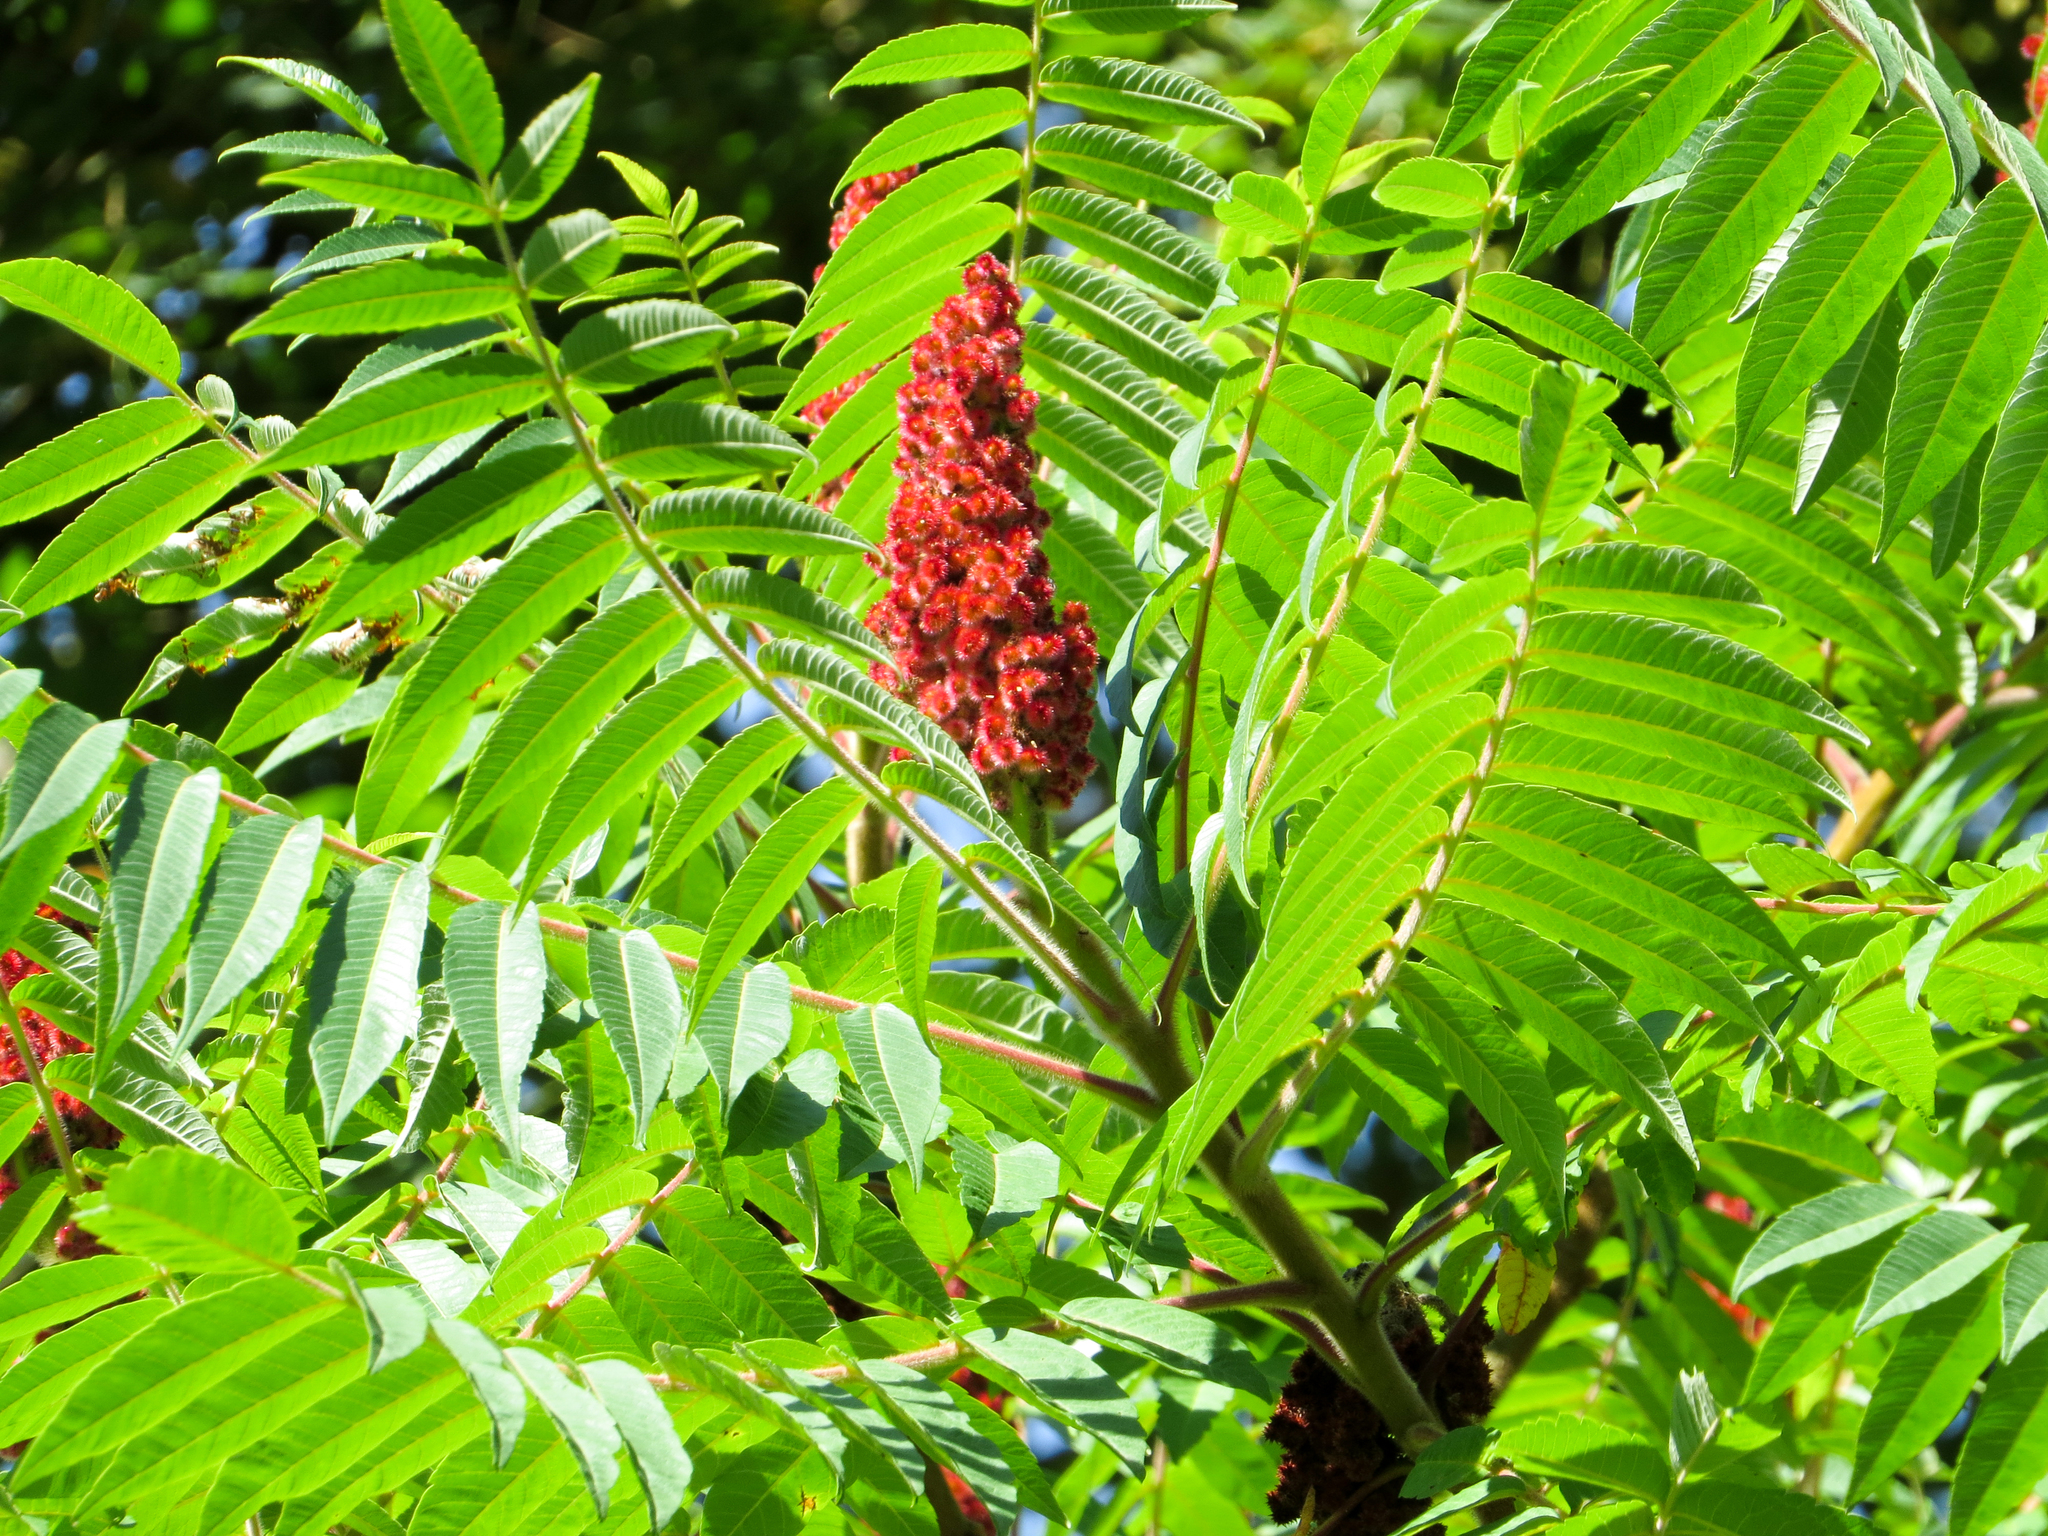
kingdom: Plantae
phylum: Tracheophyta
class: Magnoliopsida
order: Sapindales
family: Anacardiaceae
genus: Rhus
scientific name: Rhus typhina
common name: Staghorn sumac
